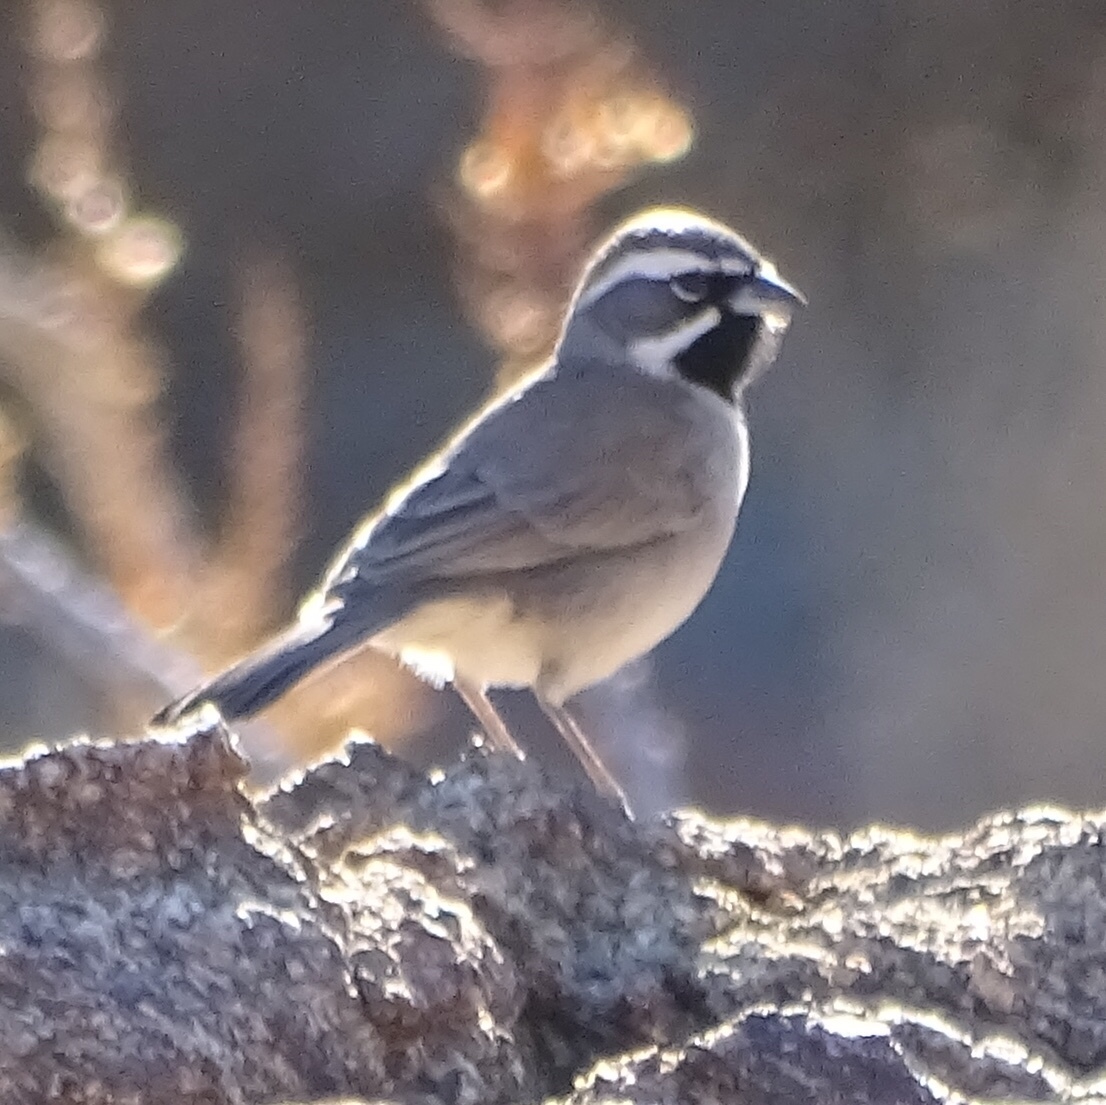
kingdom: Animalia
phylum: Chordata
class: Aves
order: Passeriformes
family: Passerellidae
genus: Amphispiza
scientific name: Amphispiza bilineata
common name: Black-throated sparrow
